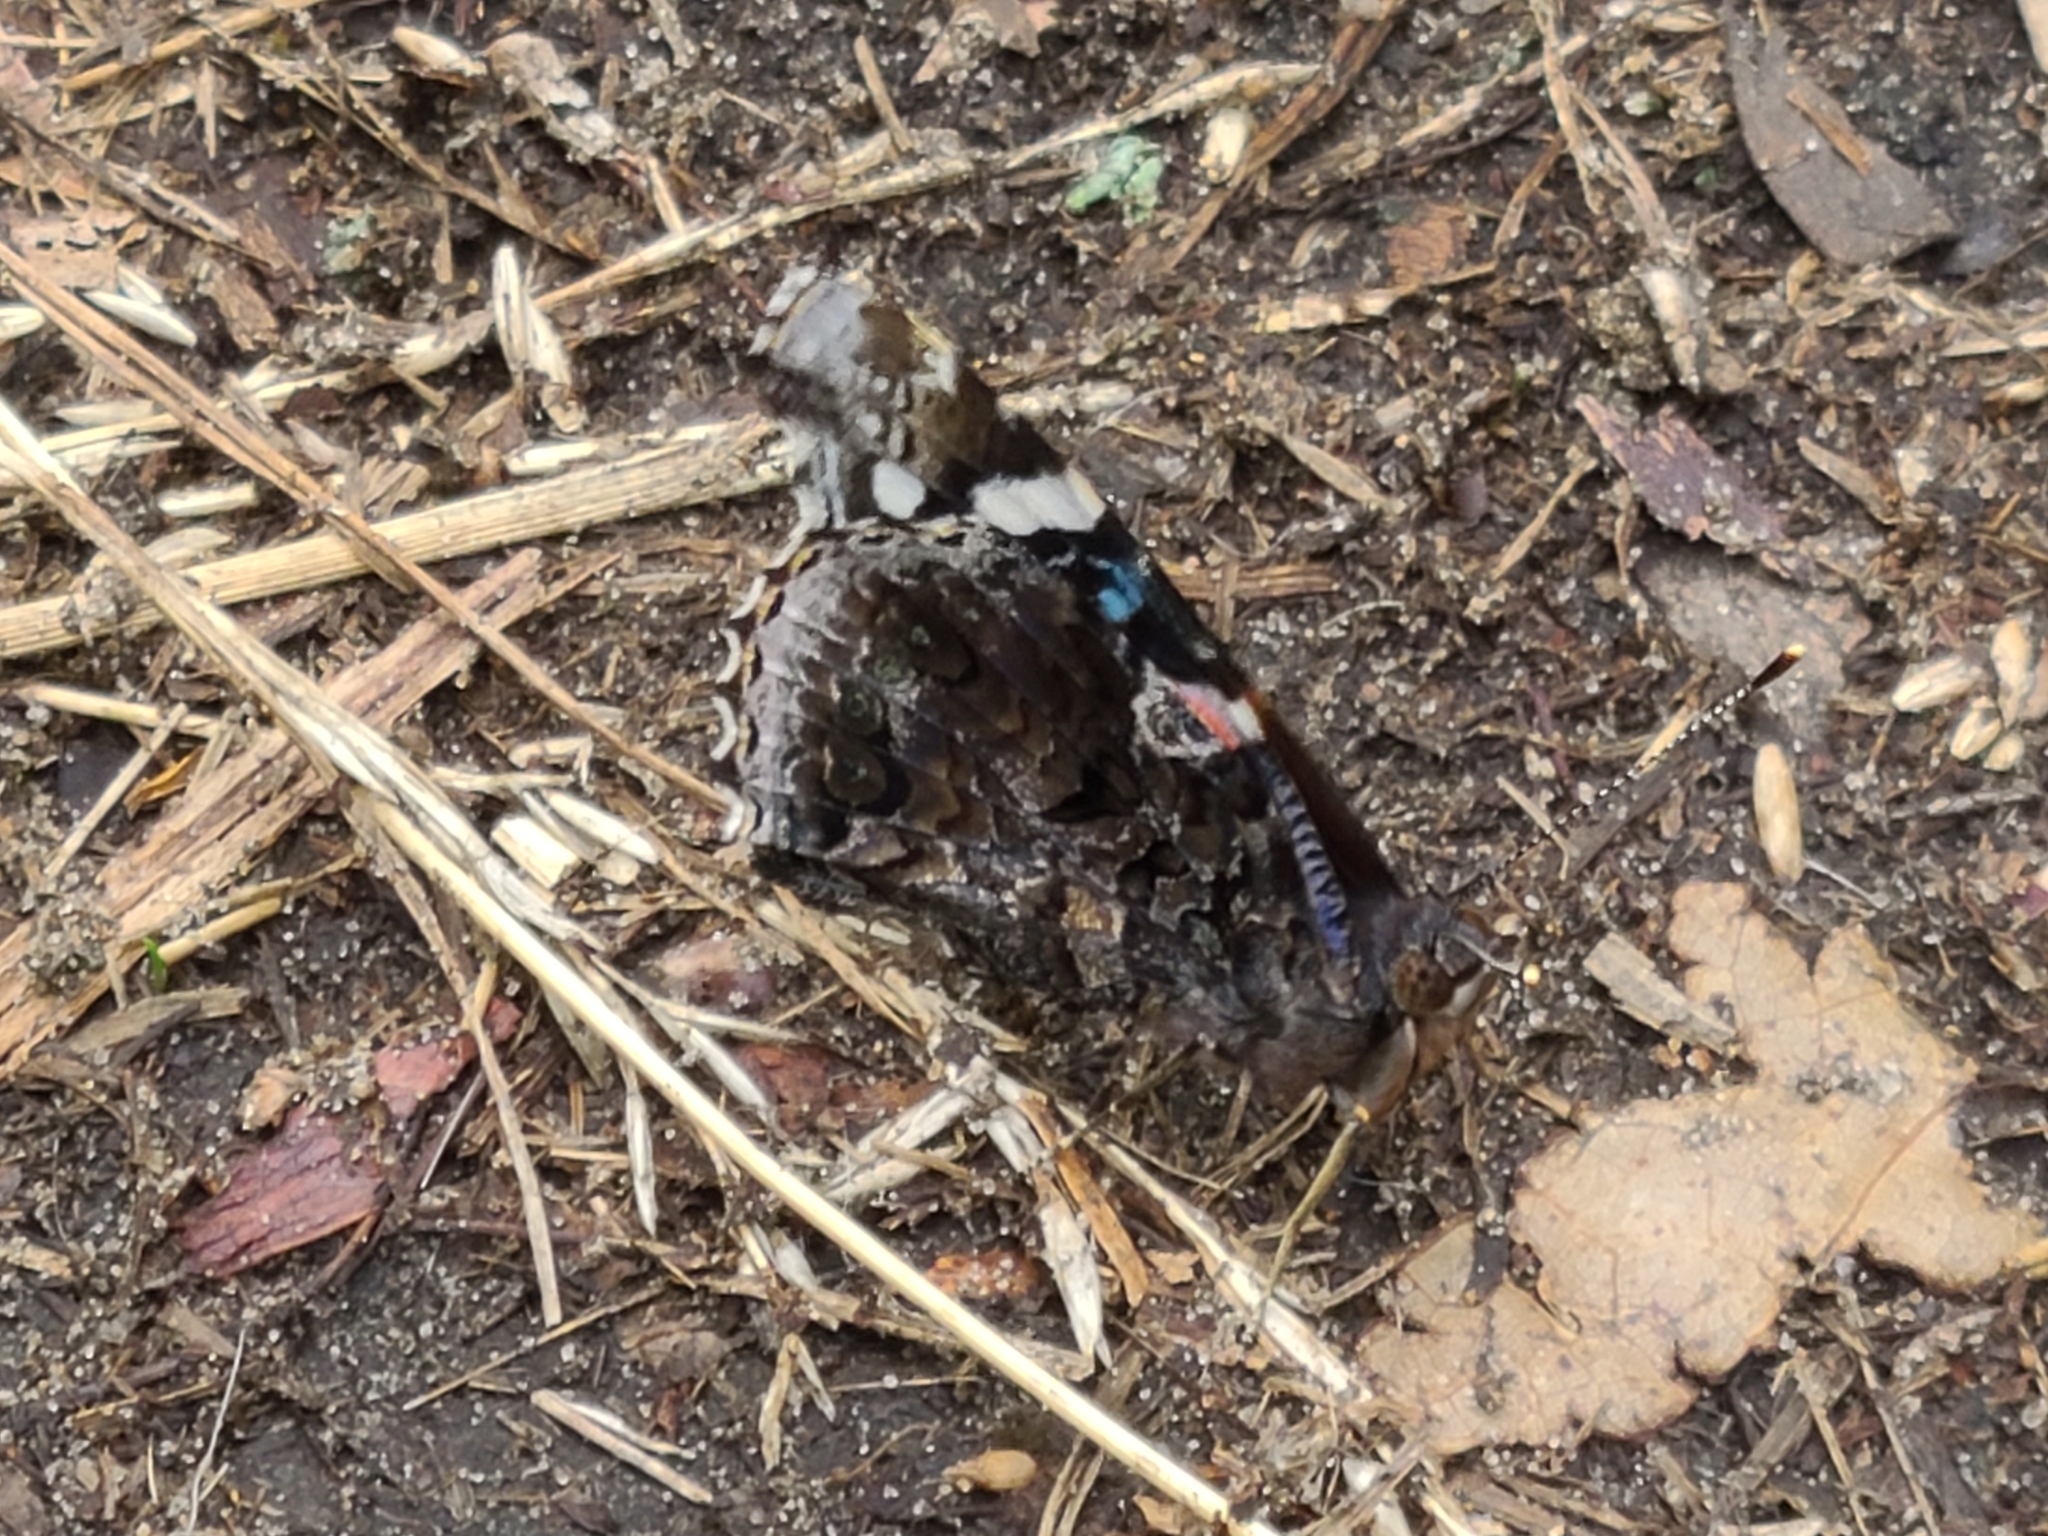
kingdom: Animalia
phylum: Arthropoda
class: Insecta
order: Lepidoptera
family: Nymphalidae
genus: Vanessa
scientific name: Vanessa atalanta
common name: Red admiral
